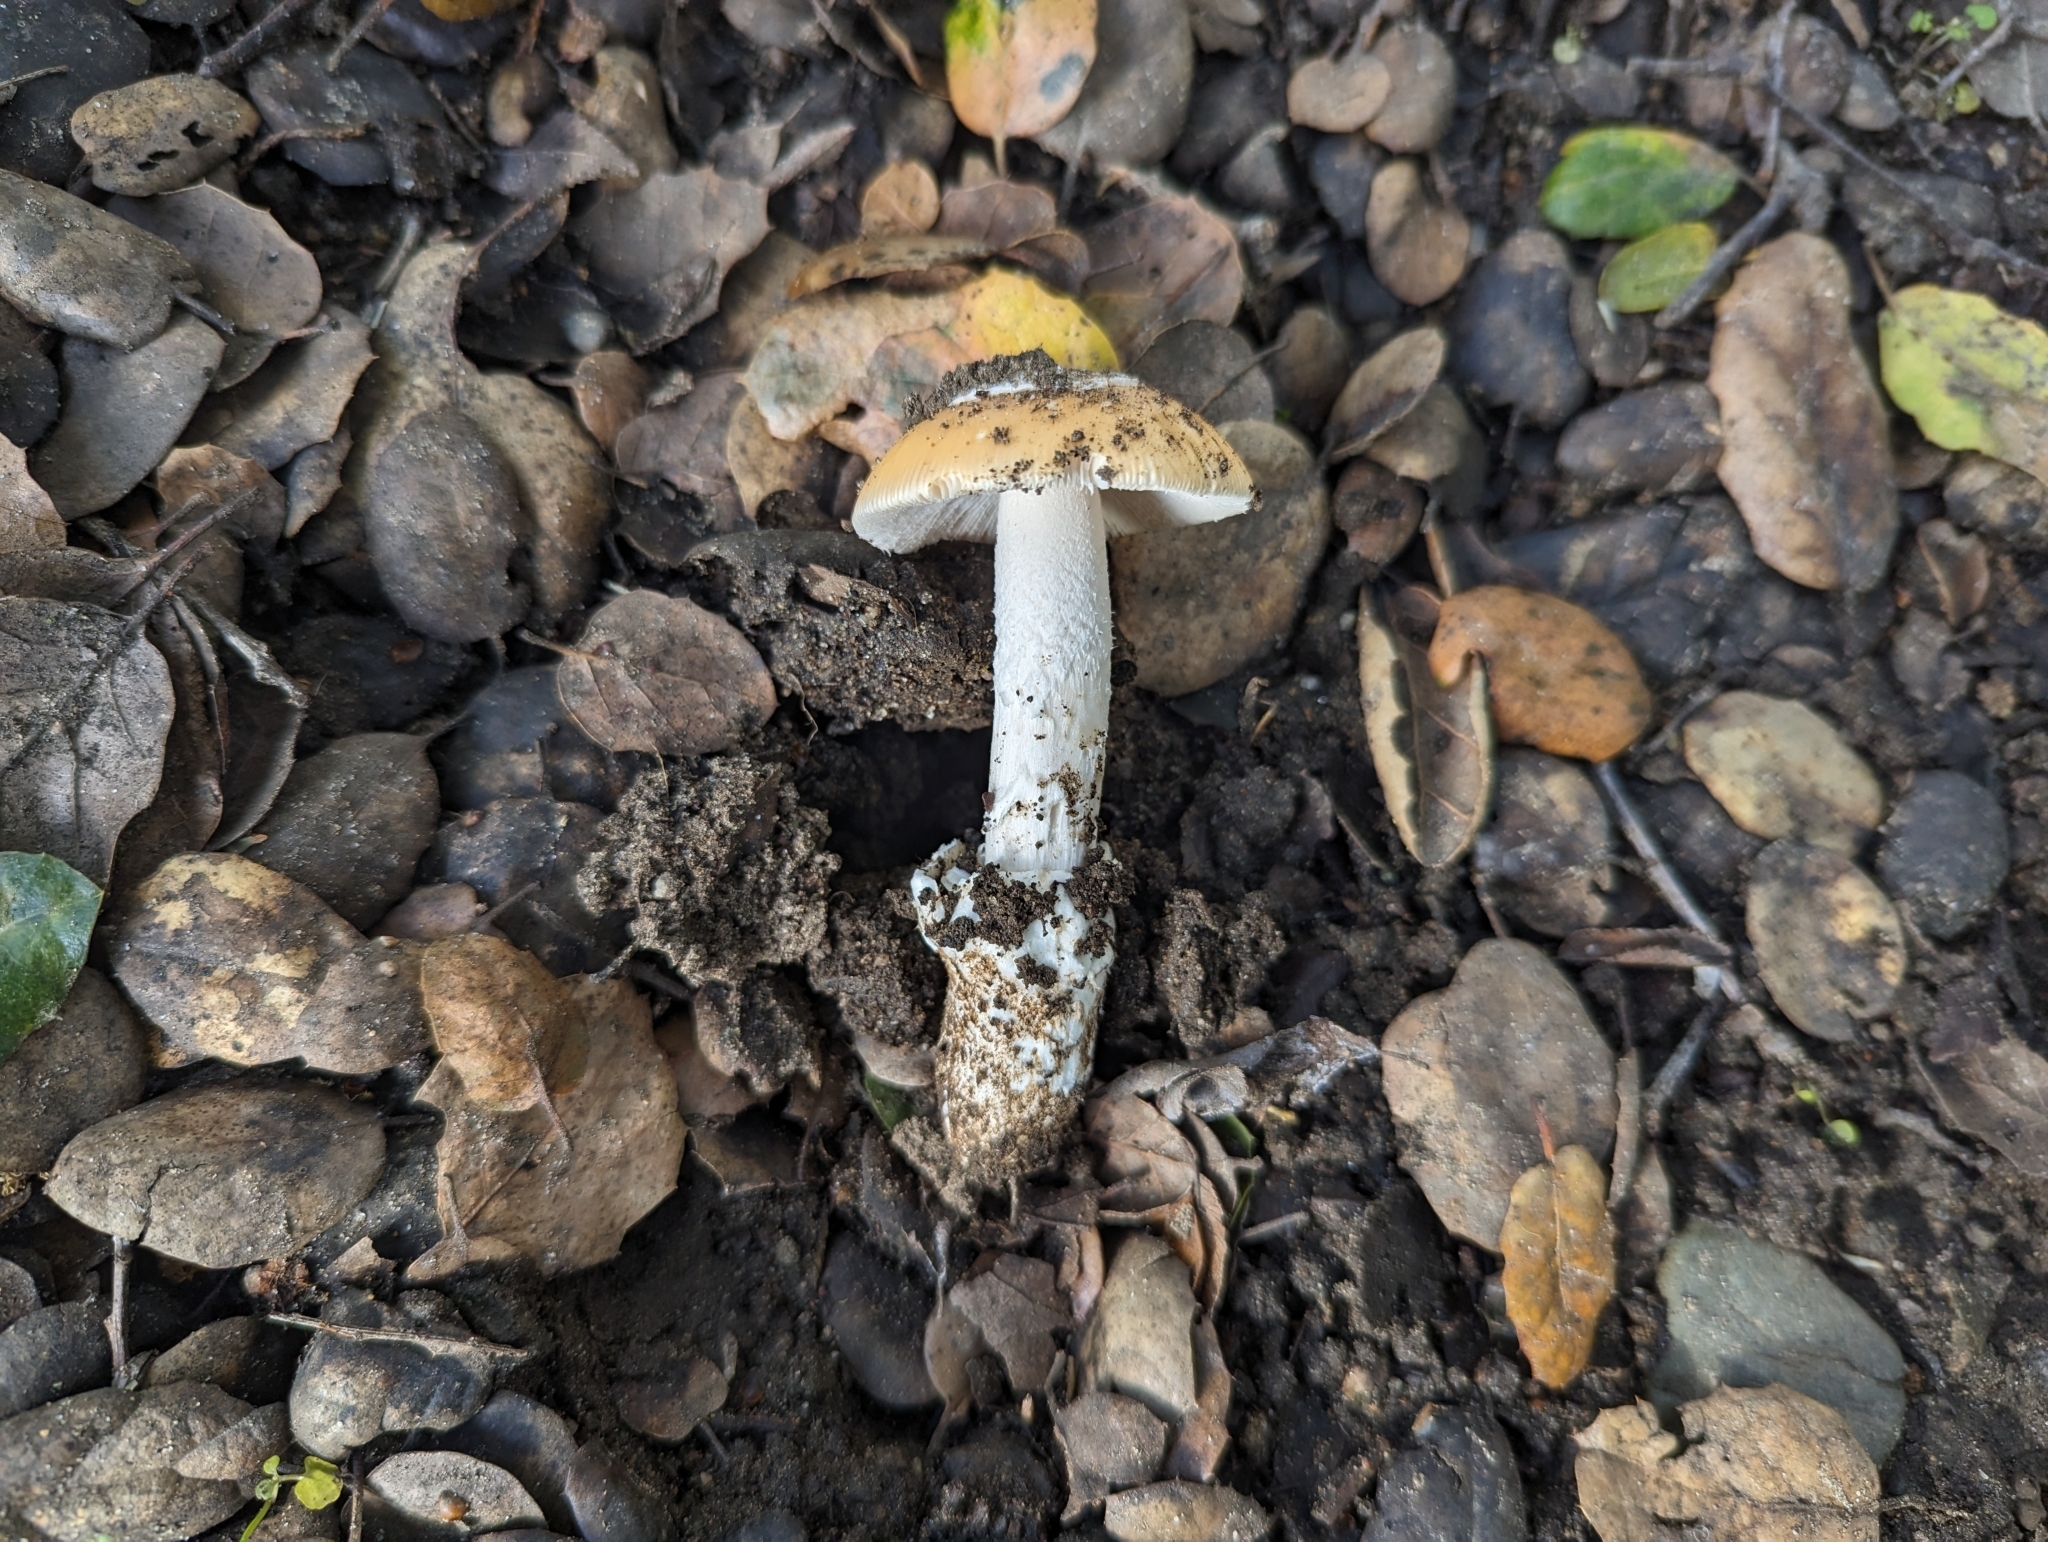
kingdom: Fungi
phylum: Basidiomycota
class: Agaricomycetes
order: Agaricales
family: Amanitaceae
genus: Amanita
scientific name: Amanita velosa
